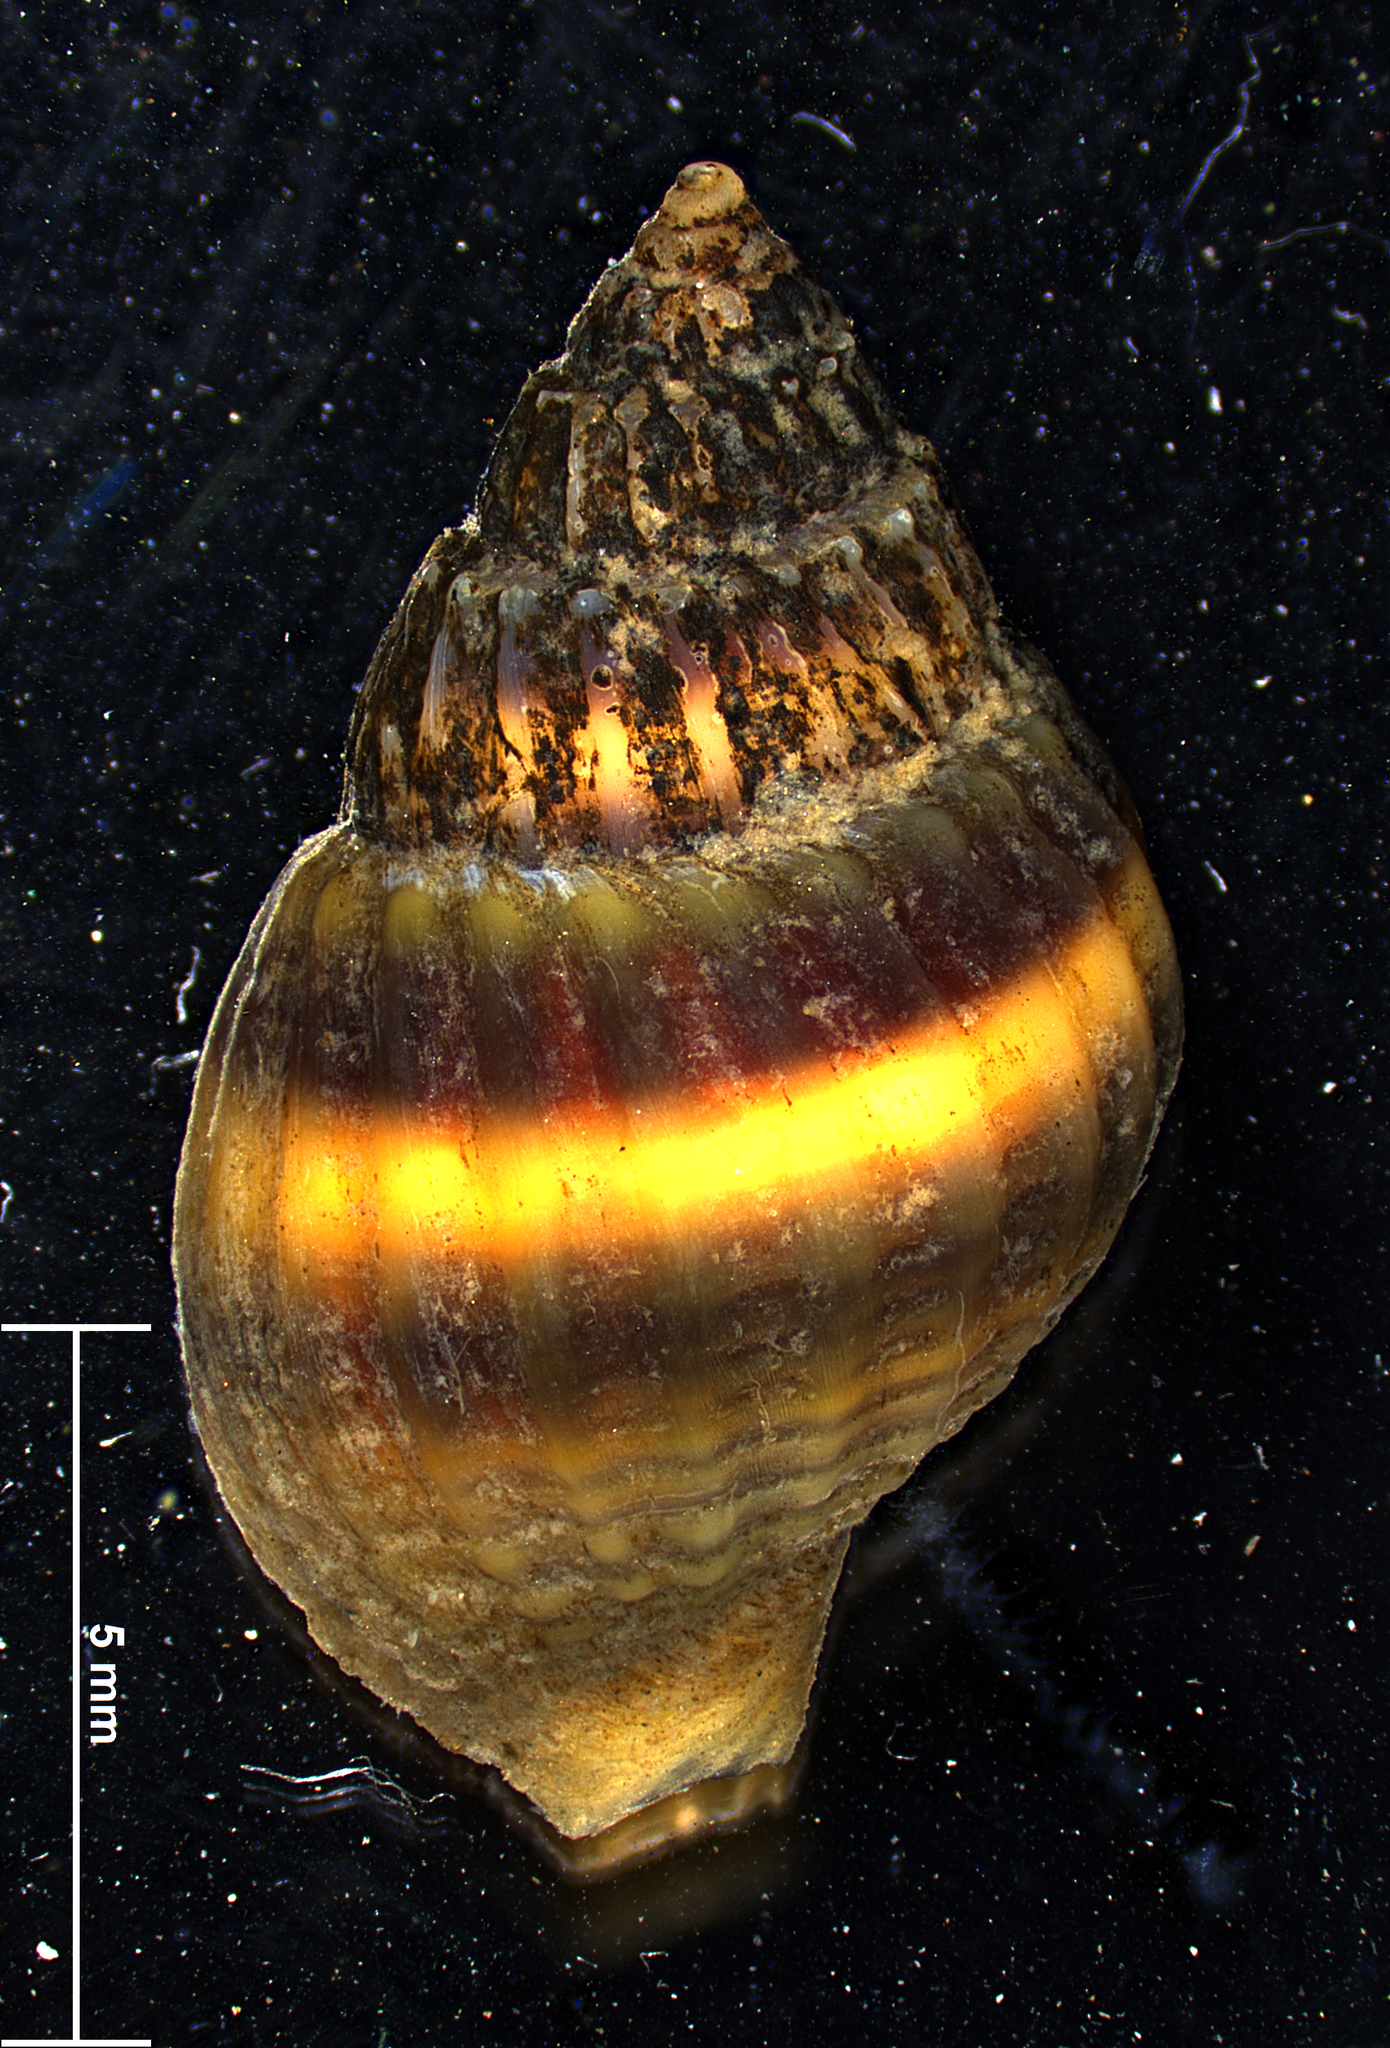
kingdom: Animalia
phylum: Mollusca
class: Gastropoda
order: Neogastropoda
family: Nassariidae
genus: Nassarius
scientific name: Nassarius sinarum
